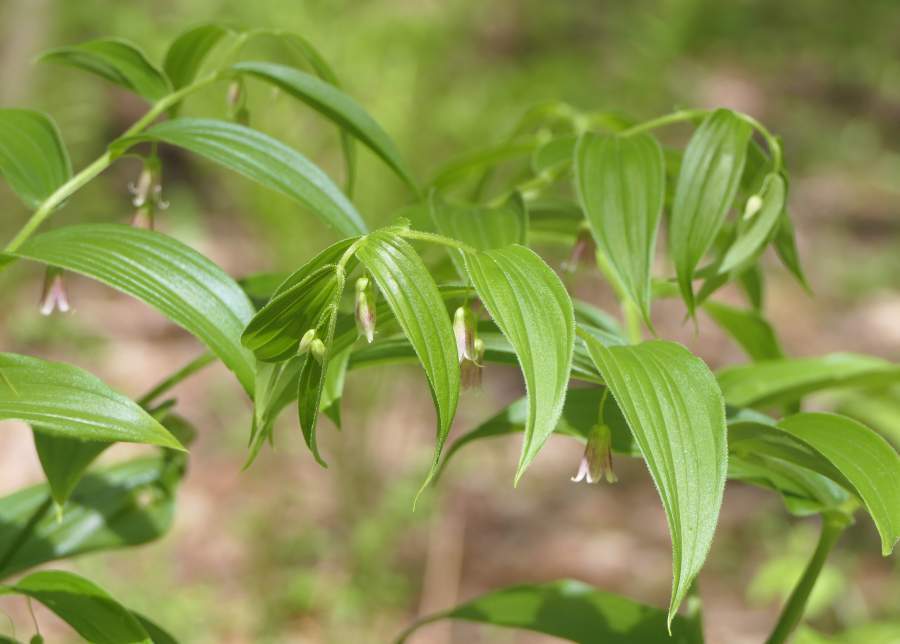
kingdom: Plantae
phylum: Tracheophyta
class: Liliopsida
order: Liliales
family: Liliaceae
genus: Streptopus
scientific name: Streptopus lanceolatus
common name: Rose mandarin
